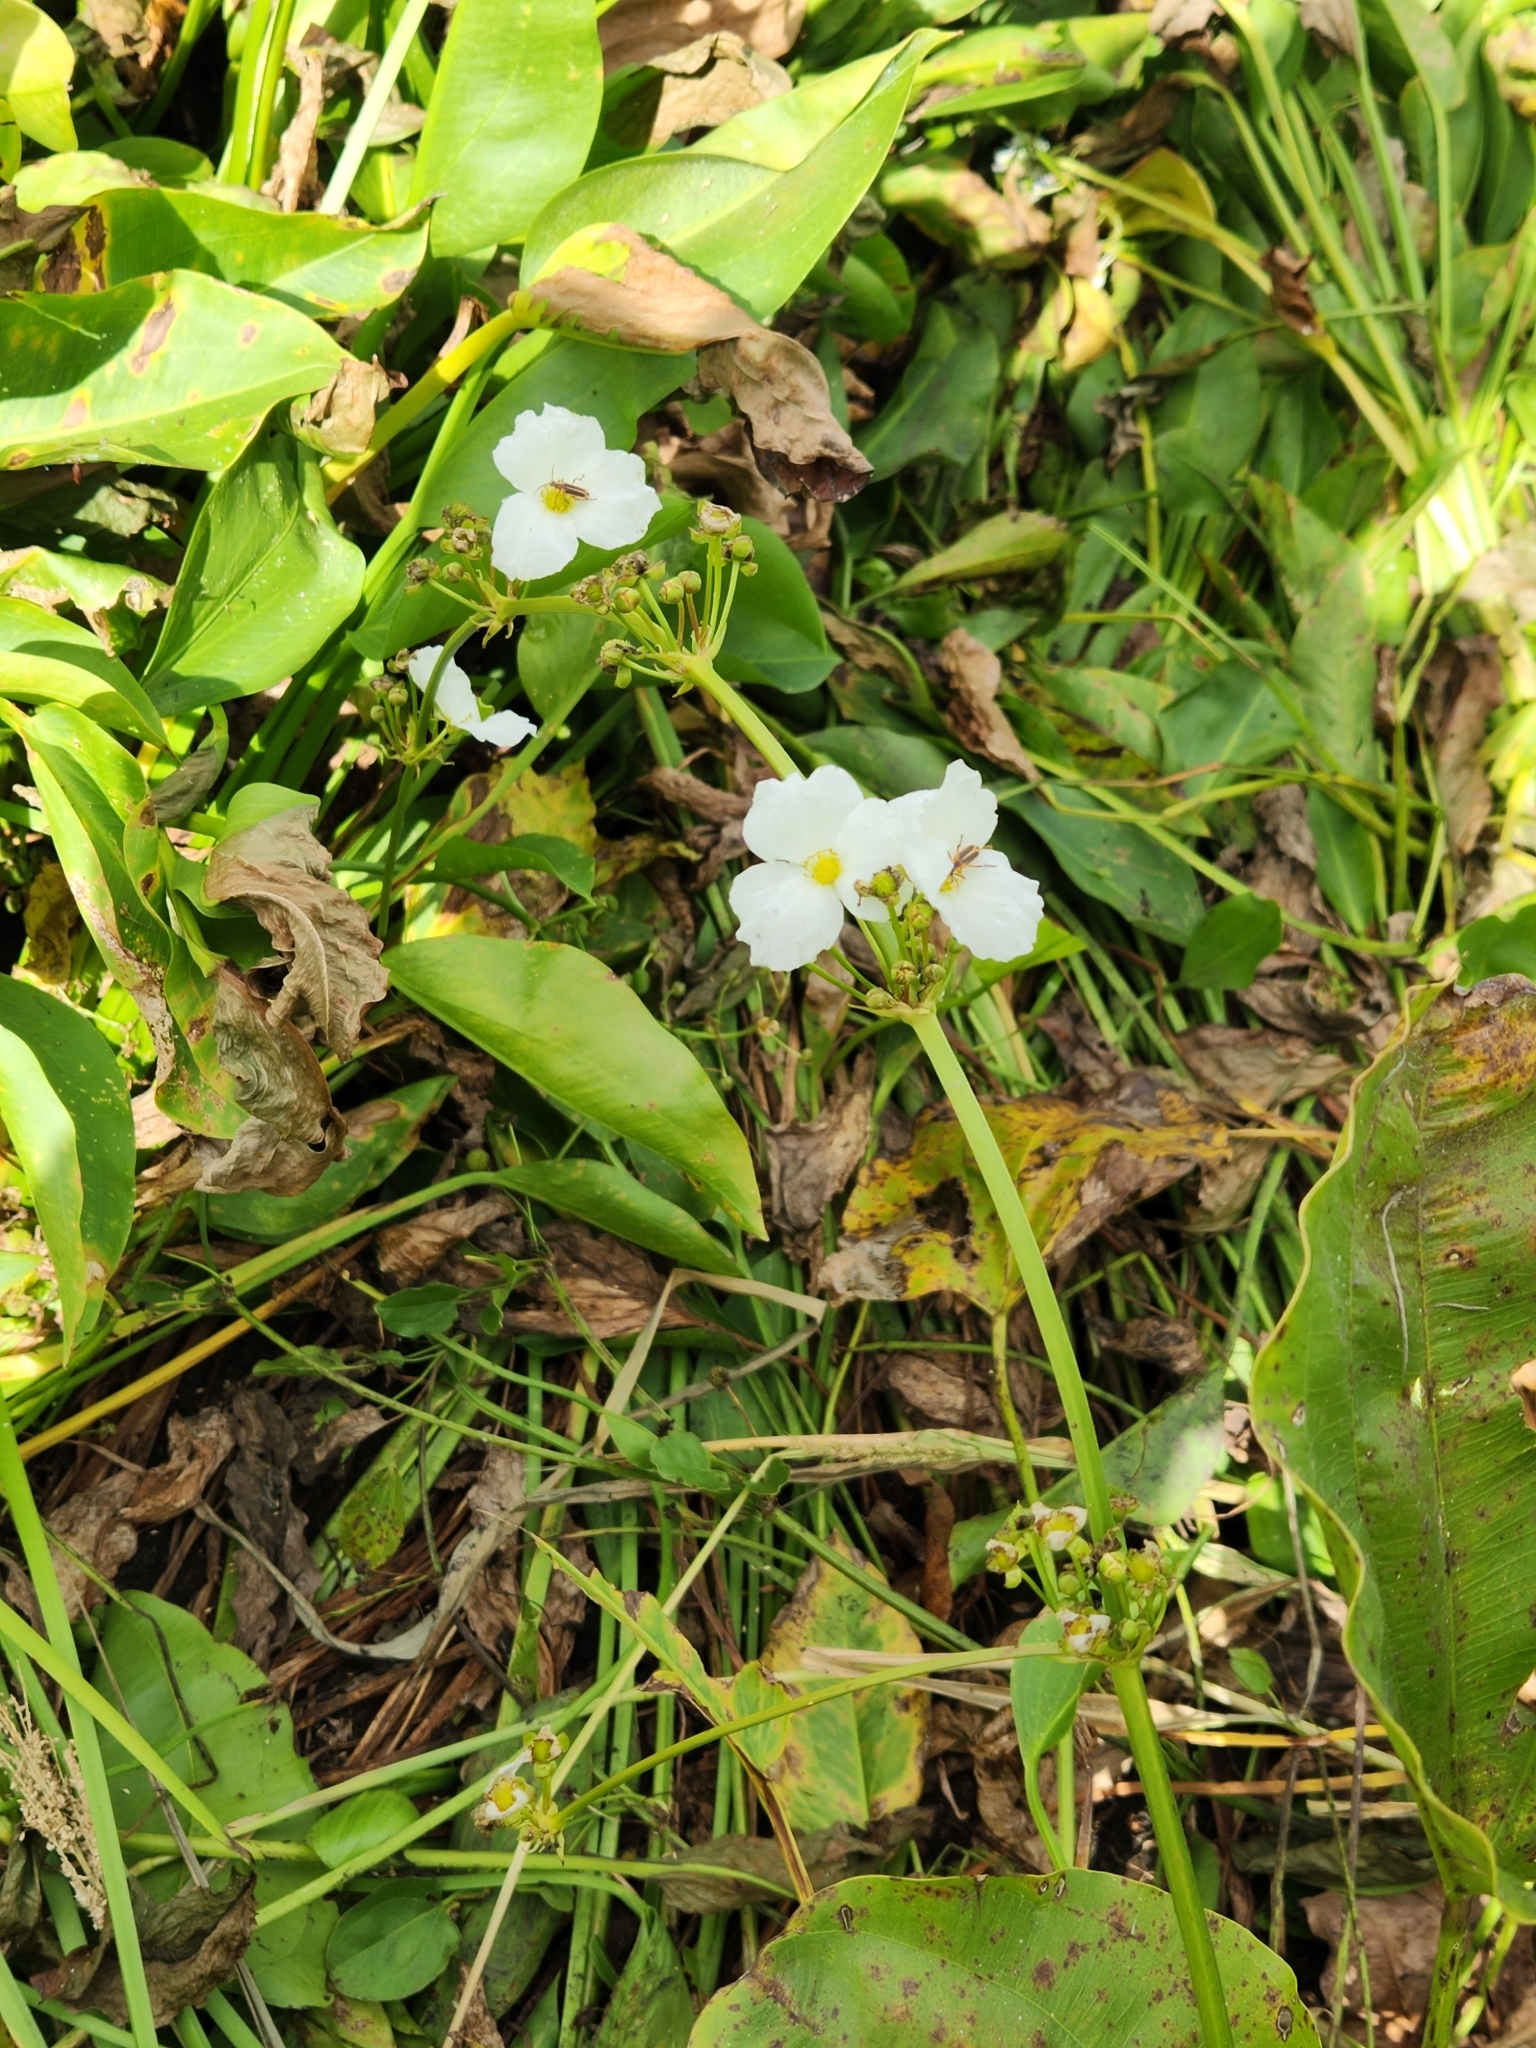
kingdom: Plantae
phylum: Tracheophyta
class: Liliopsida
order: Alismatales
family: Alismataceae
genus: Aquarius
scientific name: Aquarius cordifolius
